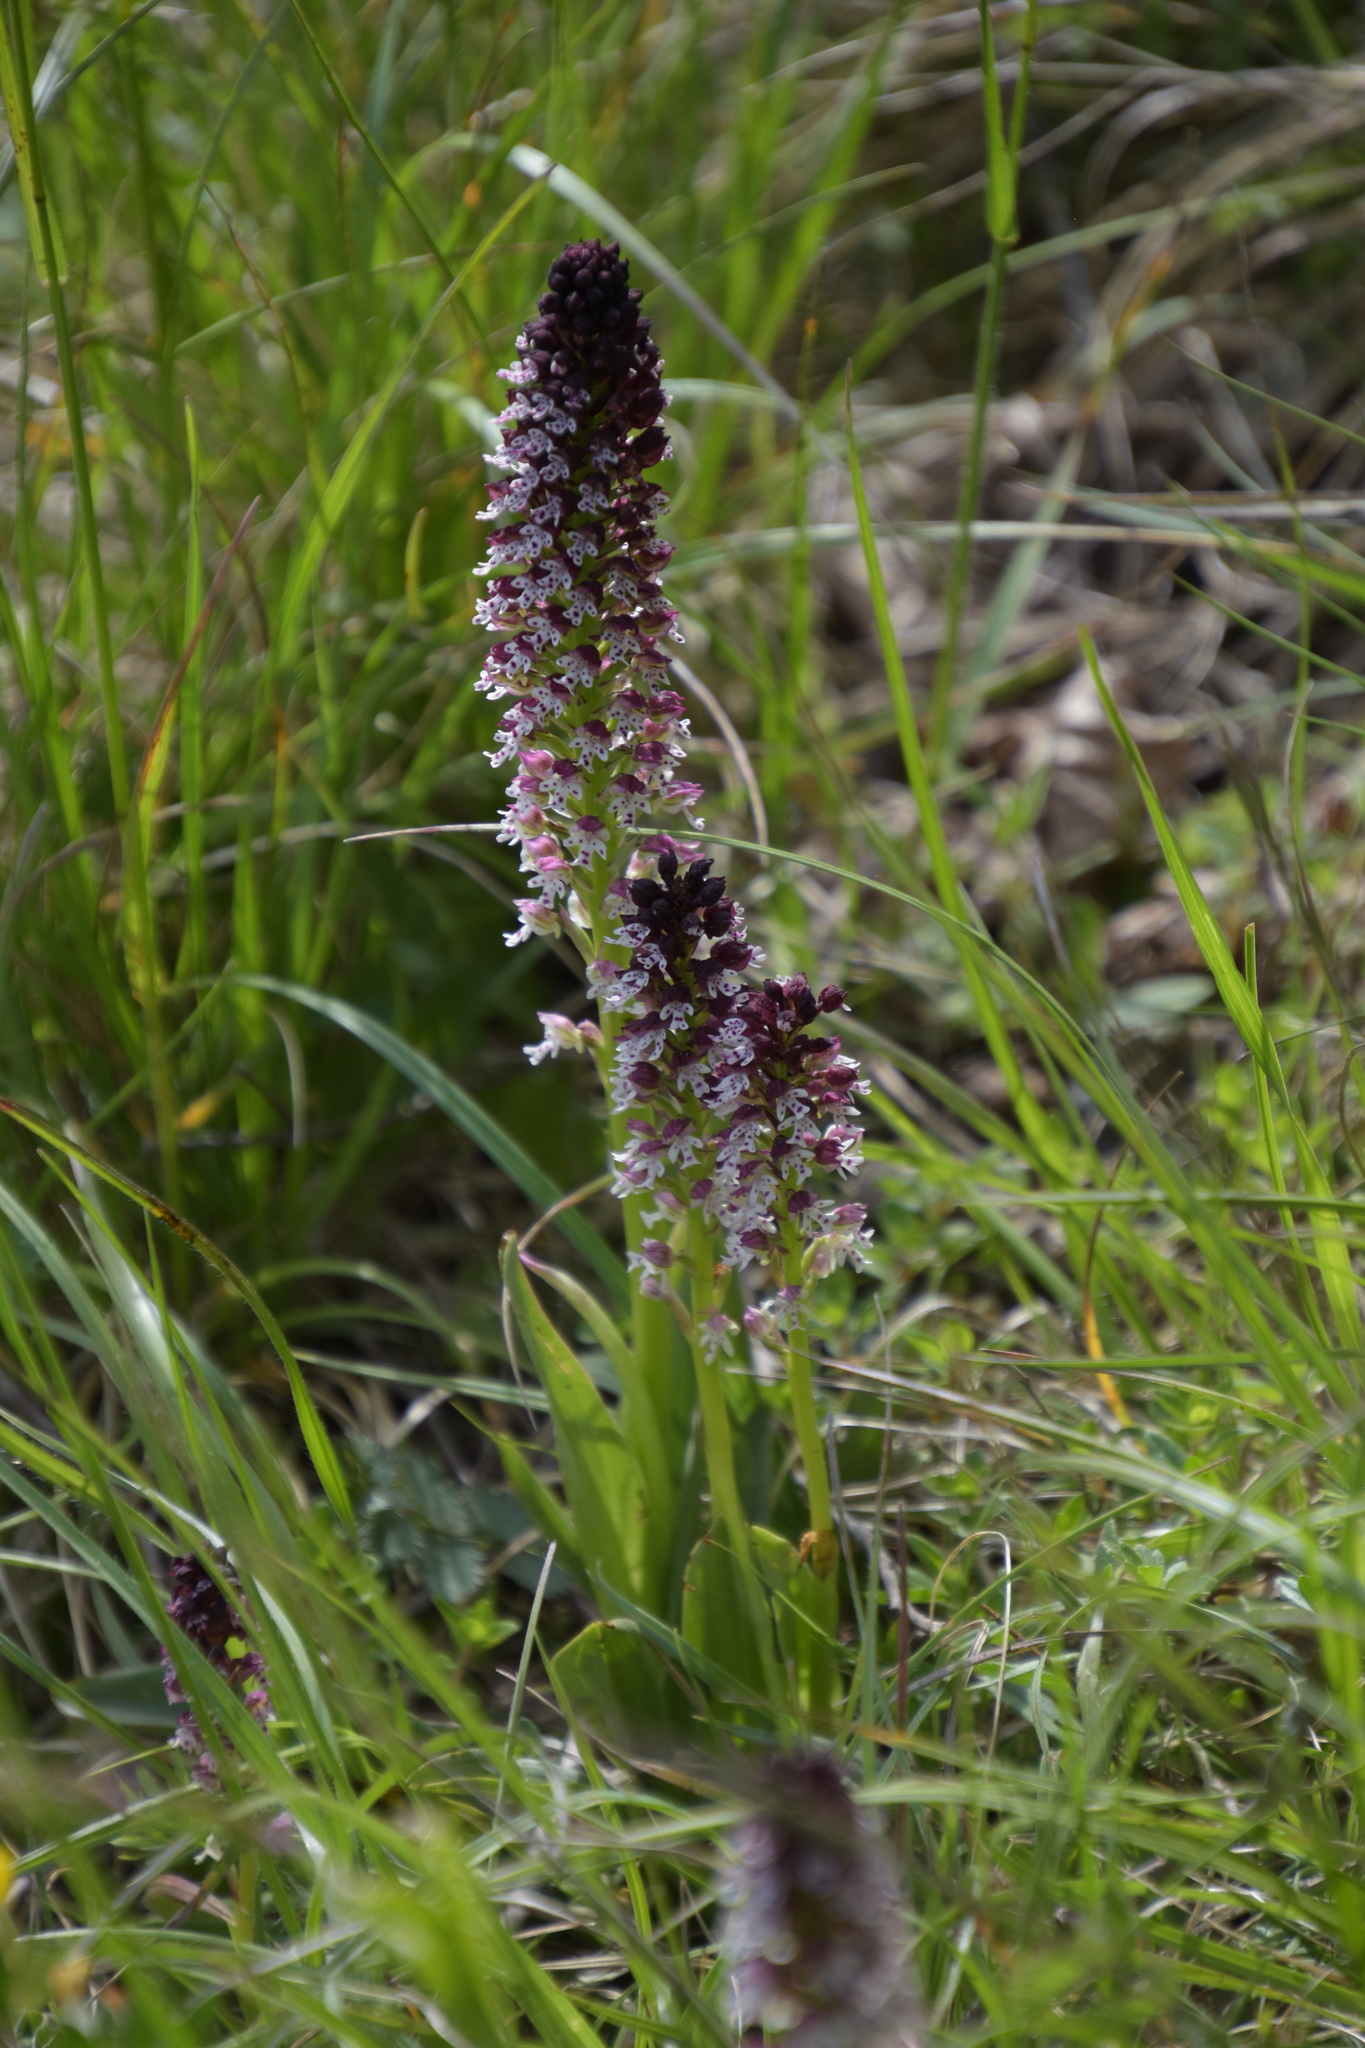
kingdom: Plantae
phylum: Tracheophyta
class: Liliopsida
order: Asparagales
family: Orchidaceae
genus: Neotinea
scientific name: Neotinea ustulata
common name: Burnt orchid
